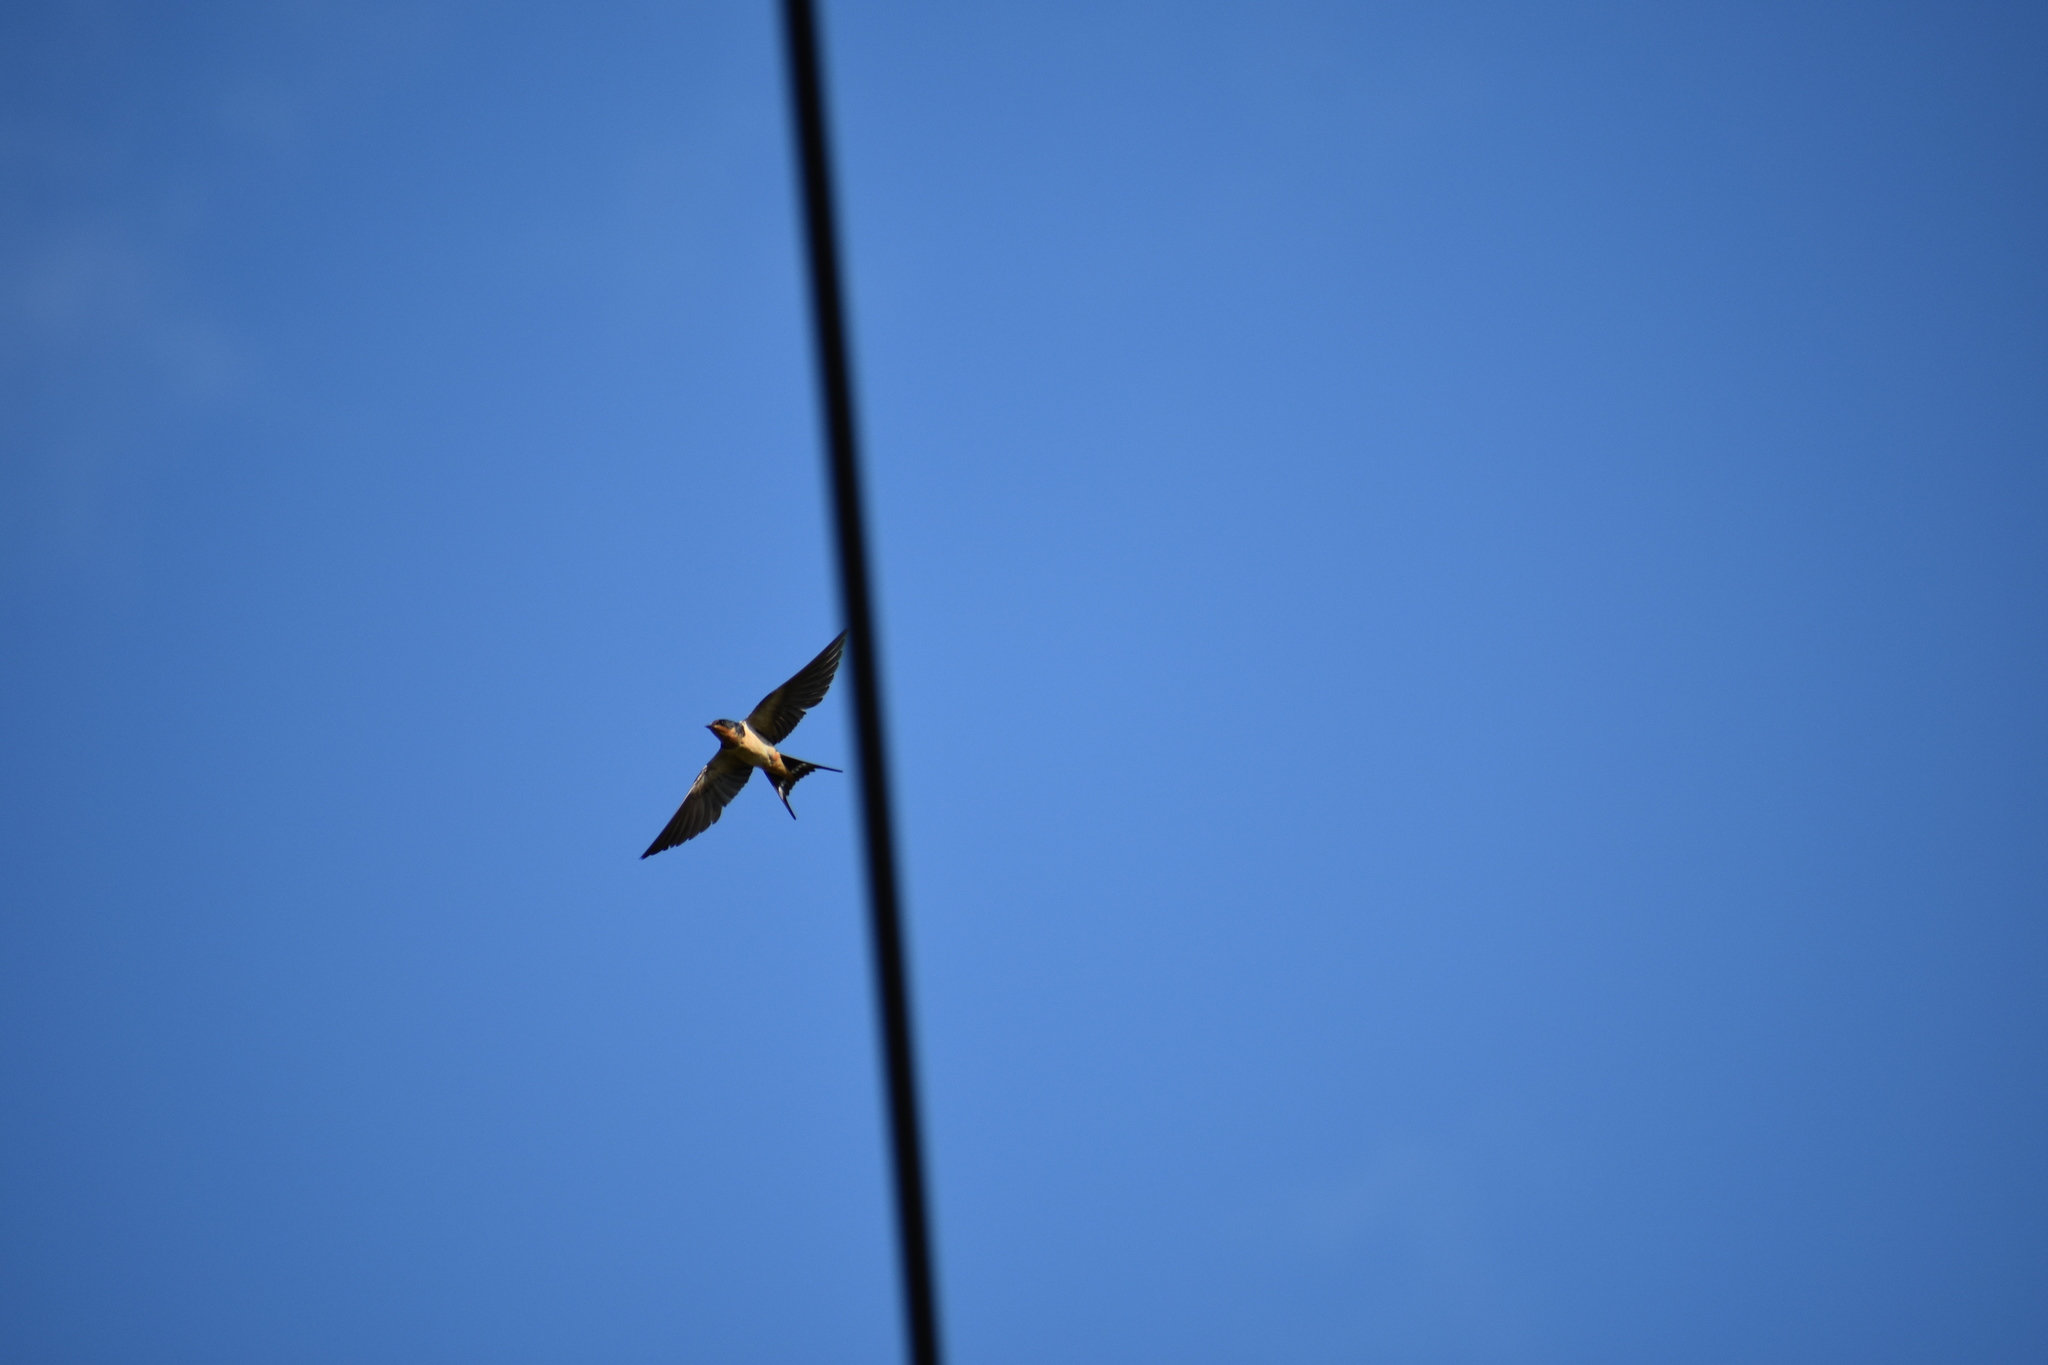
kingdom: Animalia
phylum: Chordata
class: Aves
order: Passeriformes
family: Hirundinidae
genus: Hirundo
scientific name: Hirundo rustica
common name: Barn swallow
